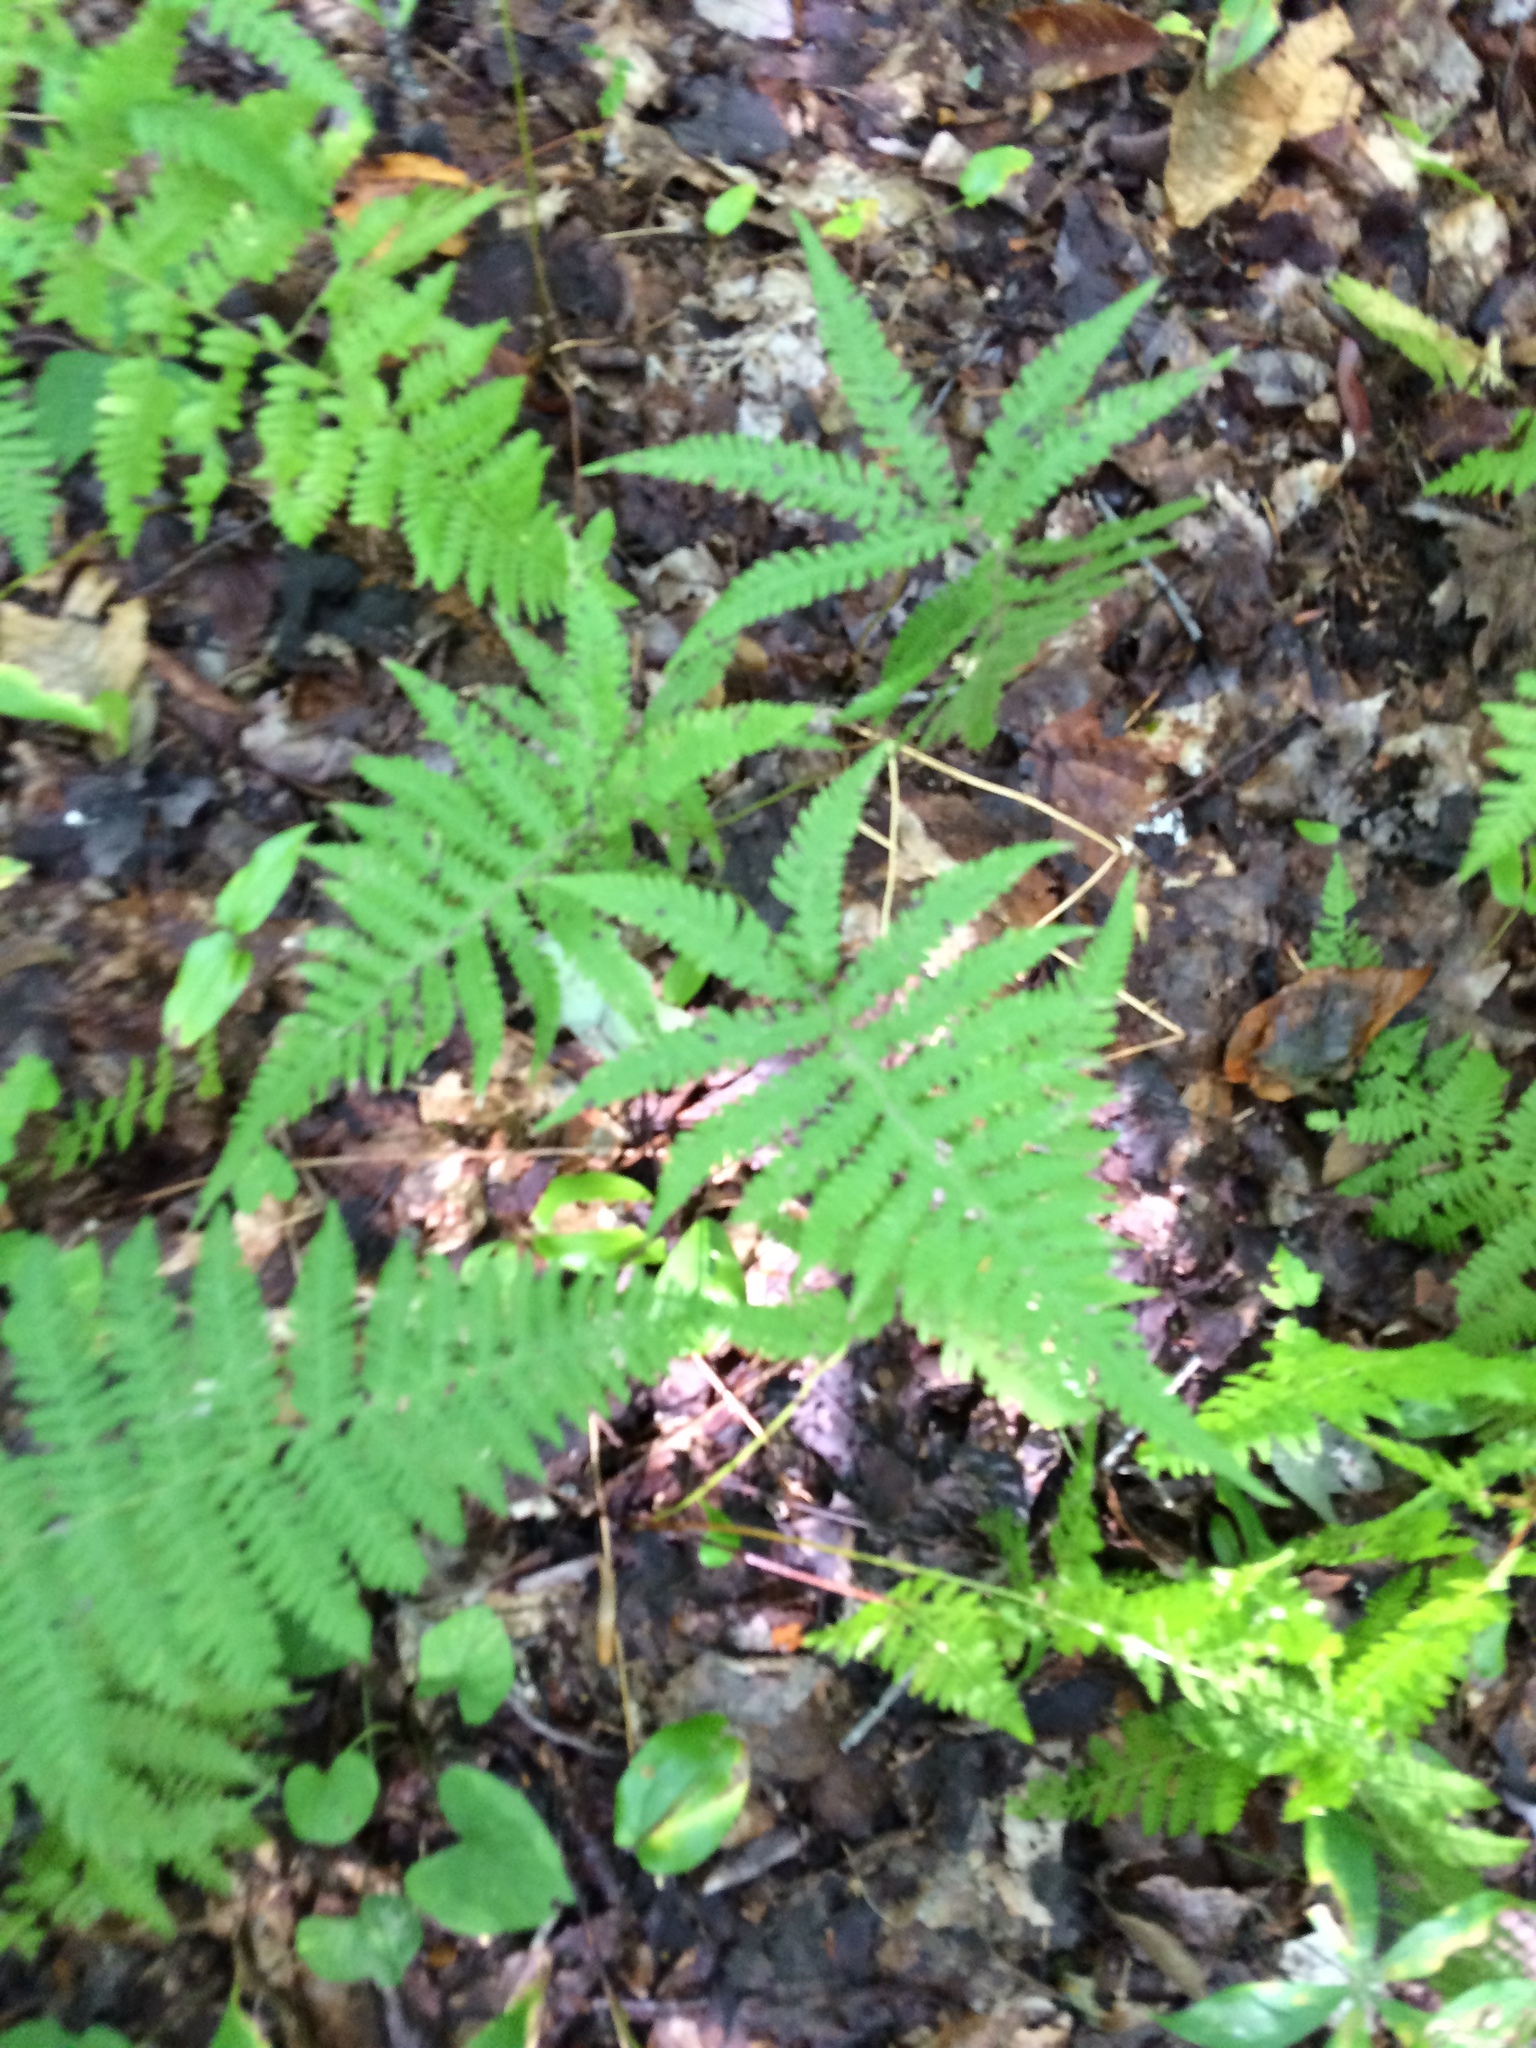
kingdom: Plantae
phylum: Tracheophyta
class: Polypodiopsida
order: Polypodiales
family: Thelypteridaceae
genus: Phegopteris
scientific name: Phegopteris connectilis
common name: Beech fern
